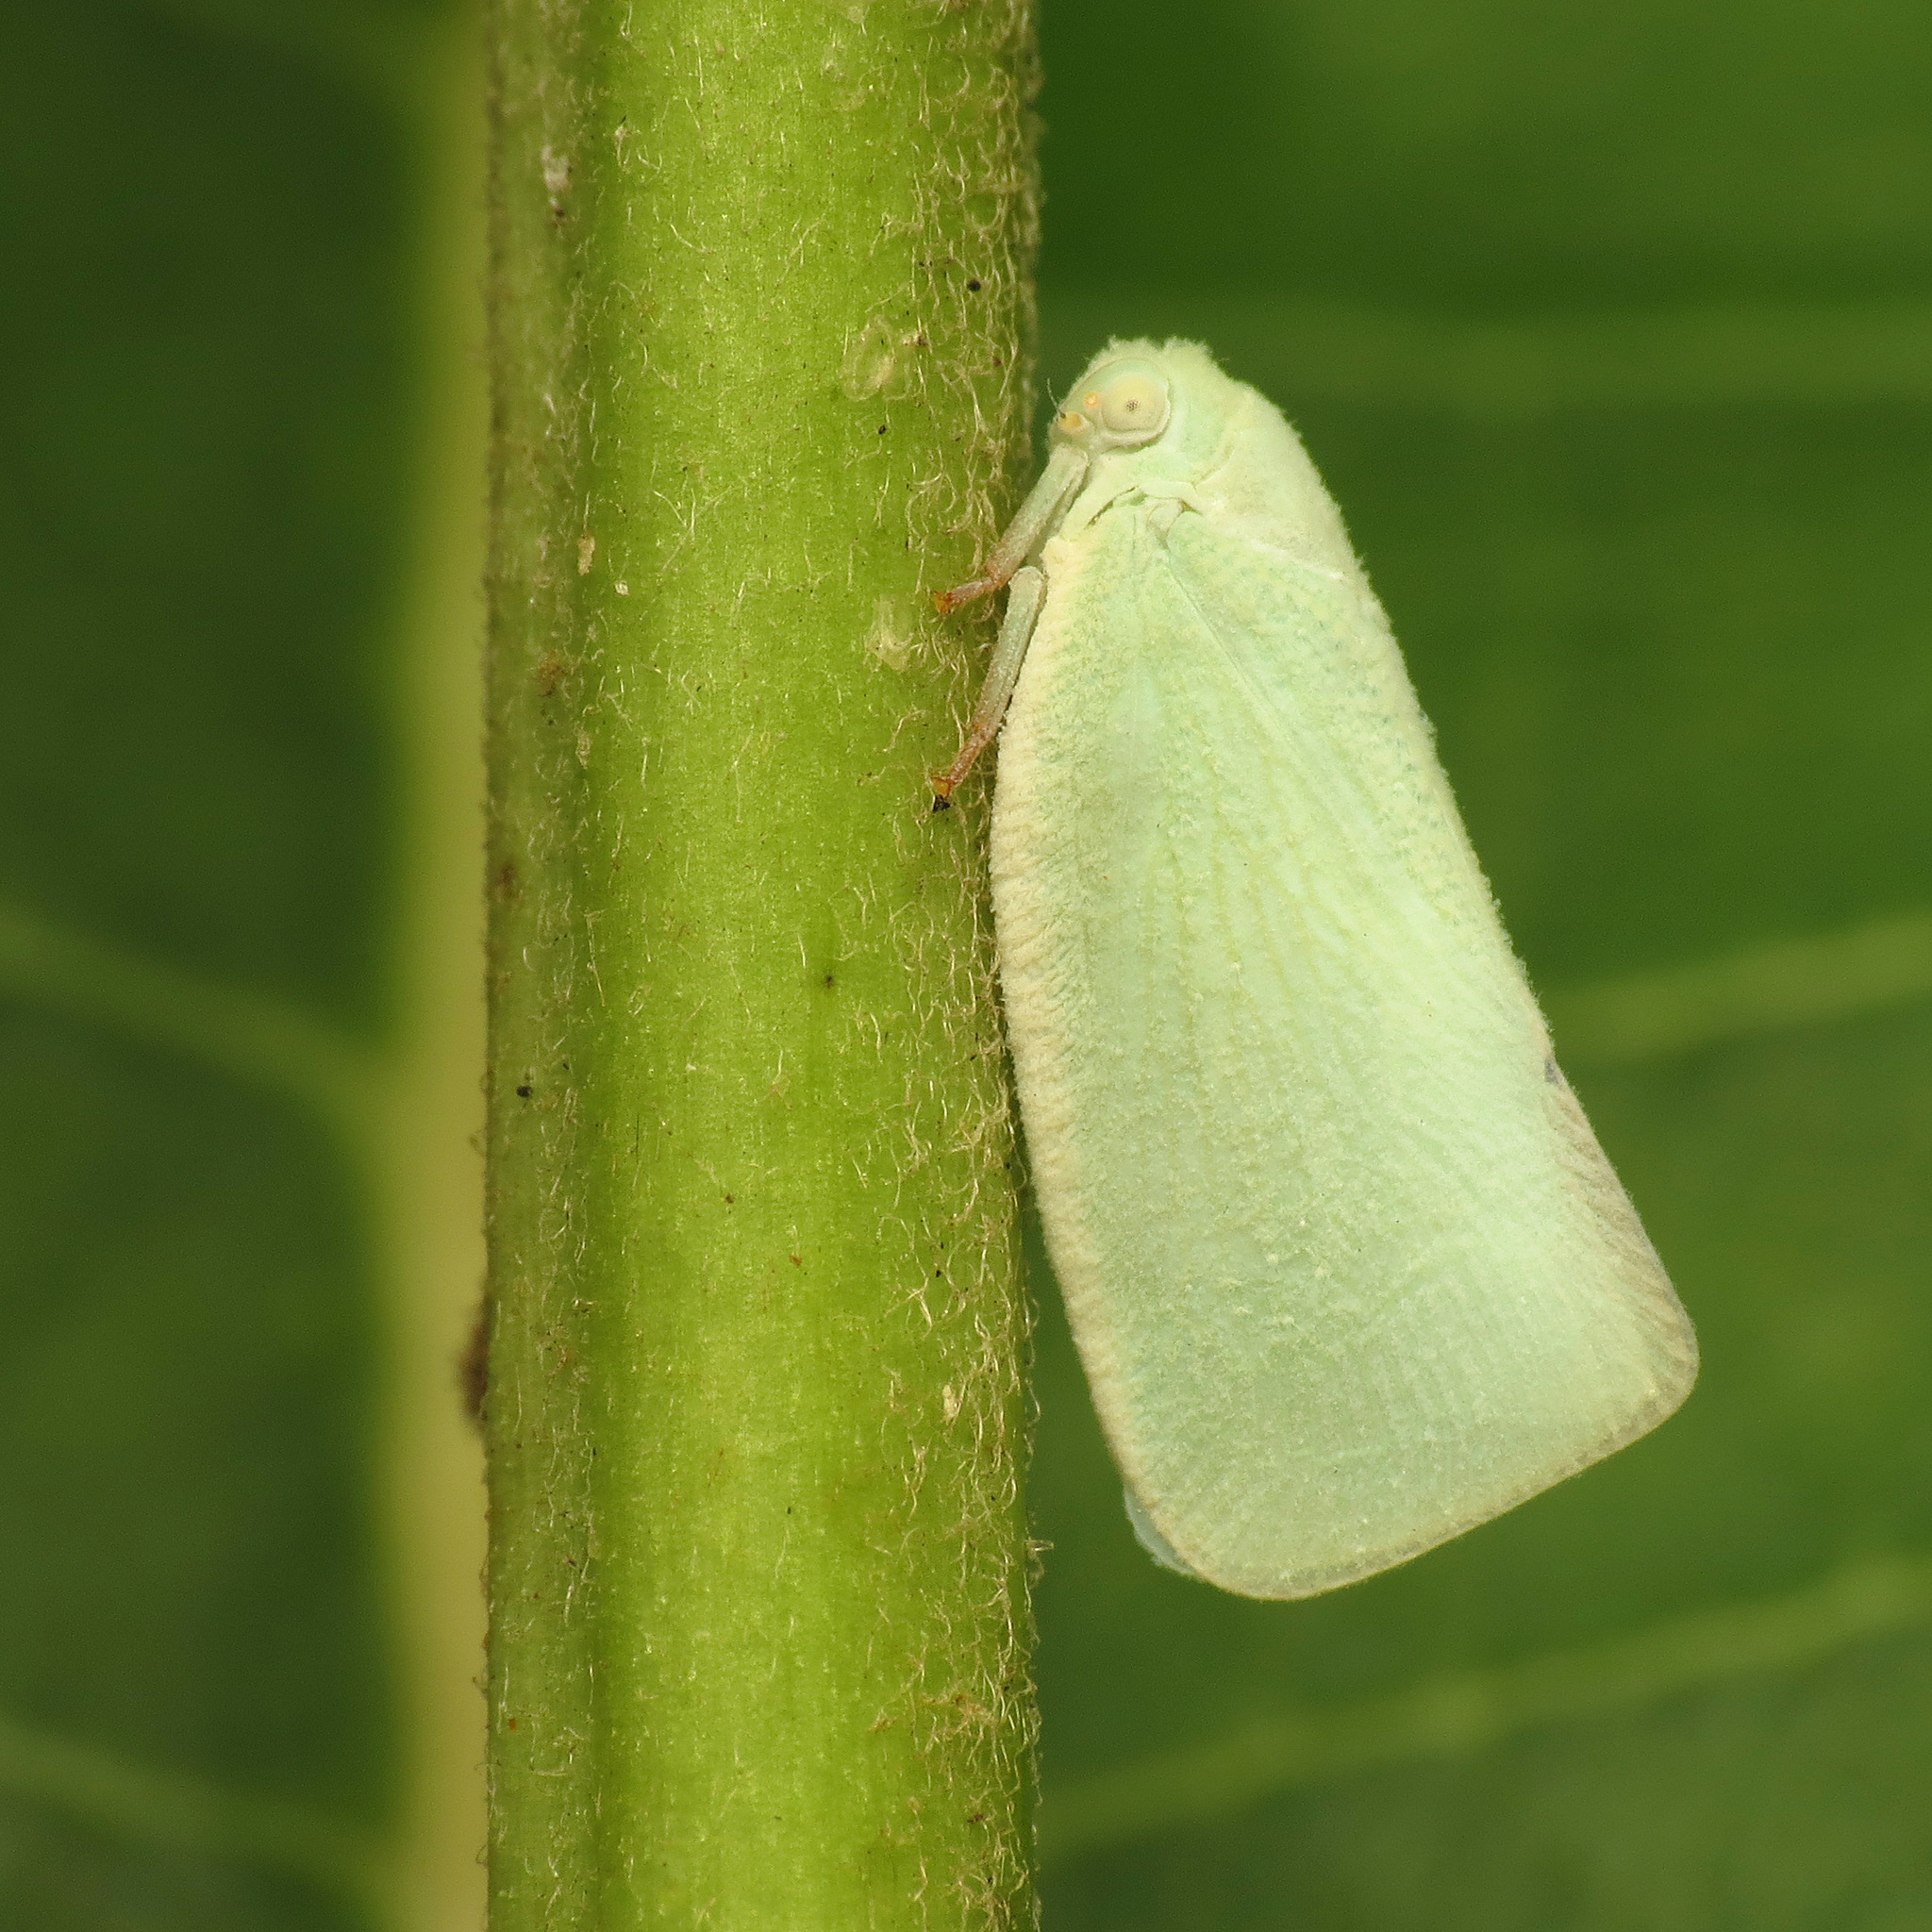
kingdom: Animalia
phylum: Arthropoda
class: Insecta
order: Hemiptera
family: Flatidae
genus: Flatormenis
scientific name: Flatormenis proxima
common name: Northern flatid planthopper
